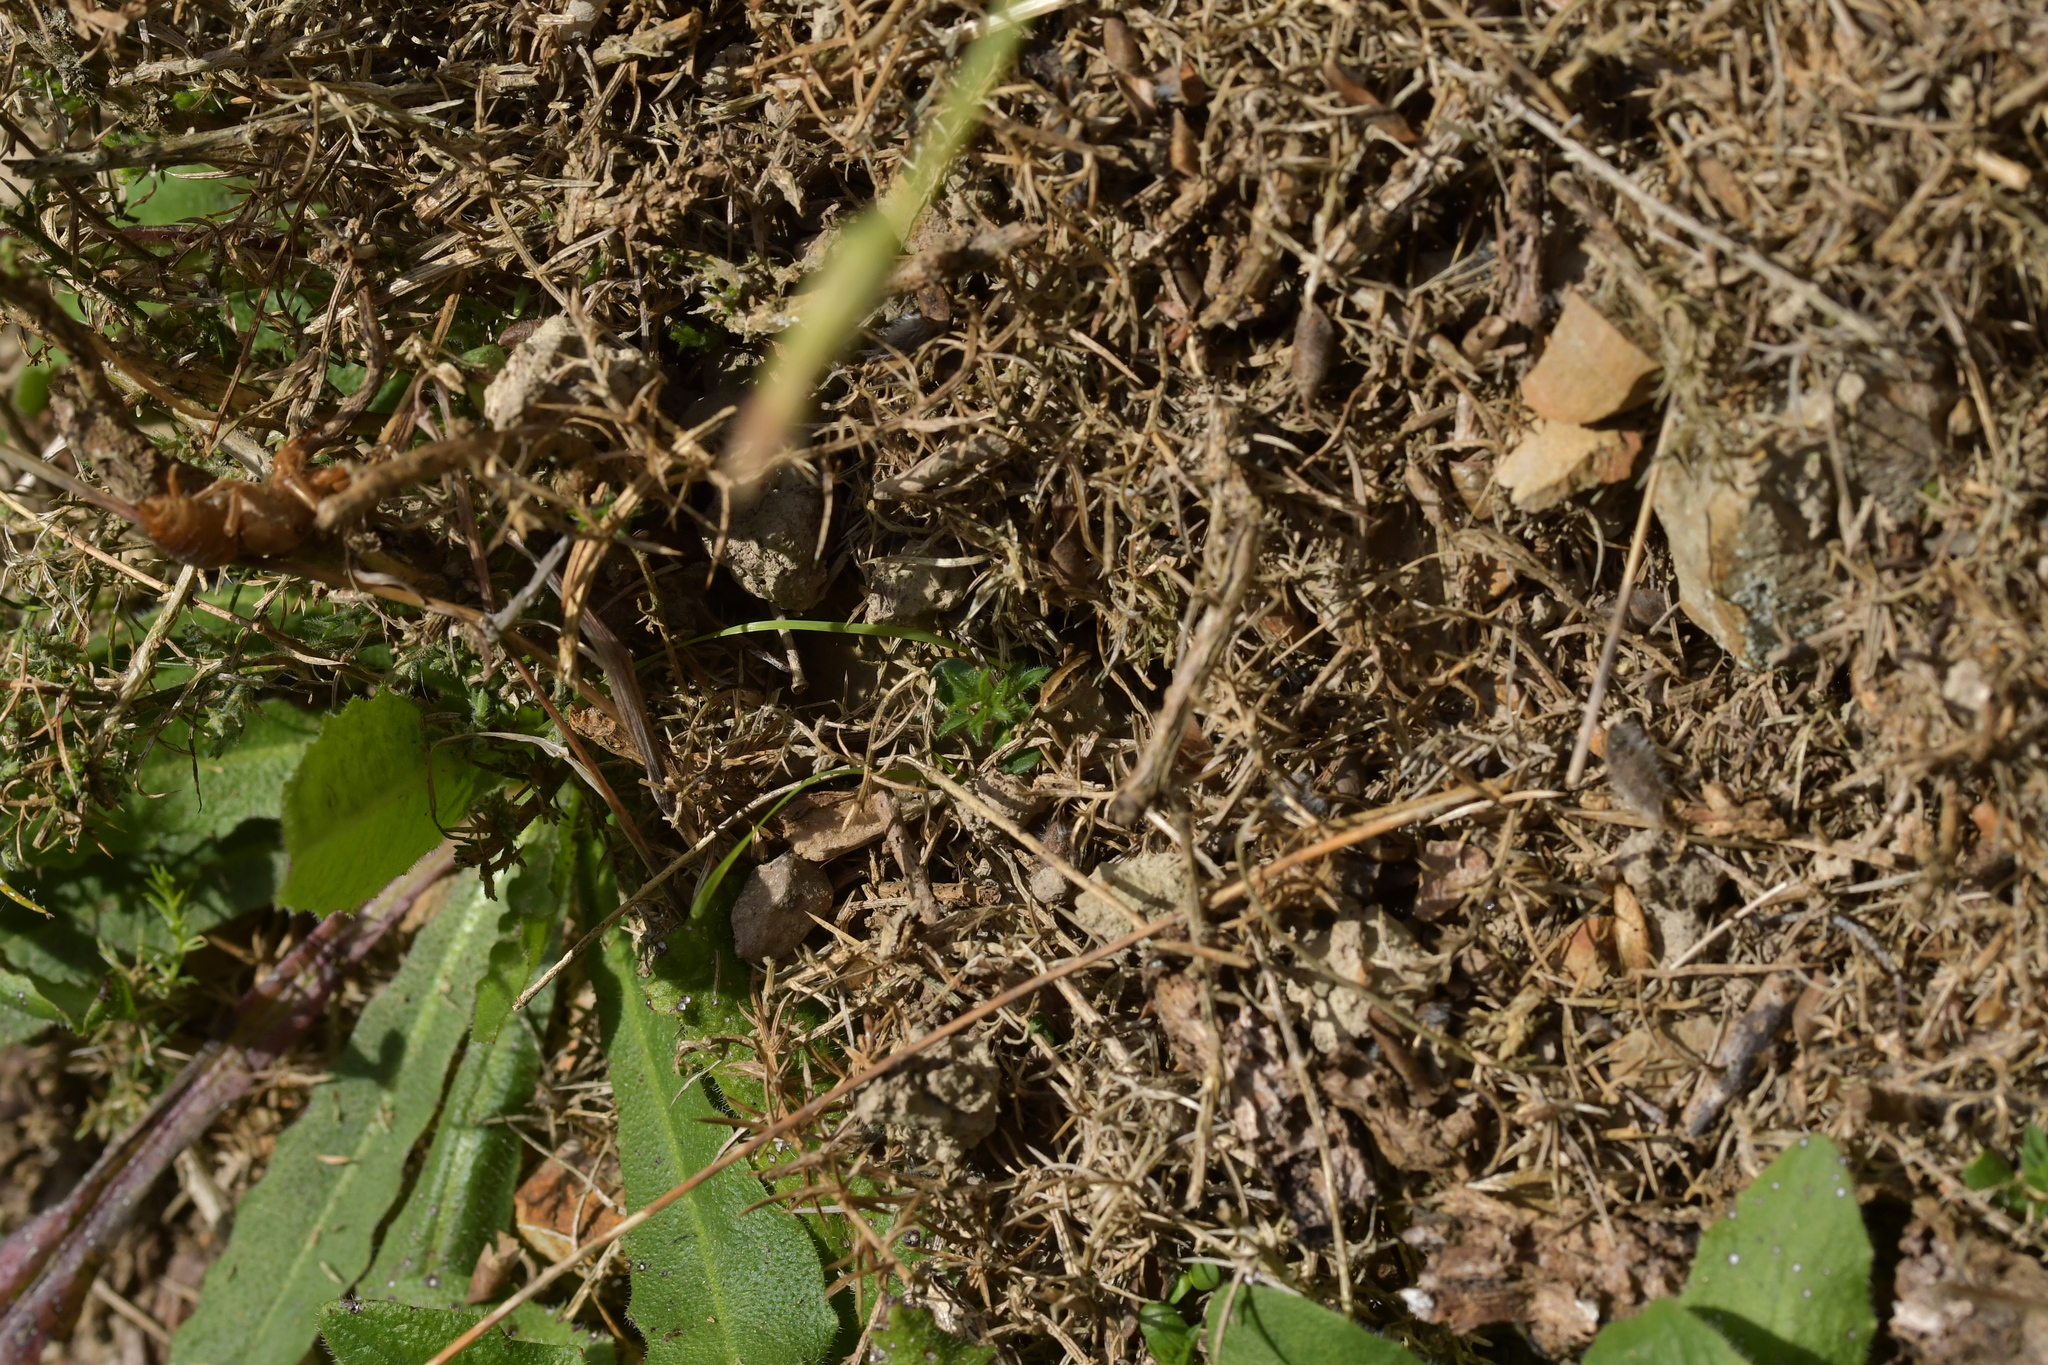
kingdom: Animalia
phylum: Chordata
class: Squamata
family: Scincidae
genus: Oligosoma
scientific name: Oligosoma polychroma
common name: Common new zealand skink
